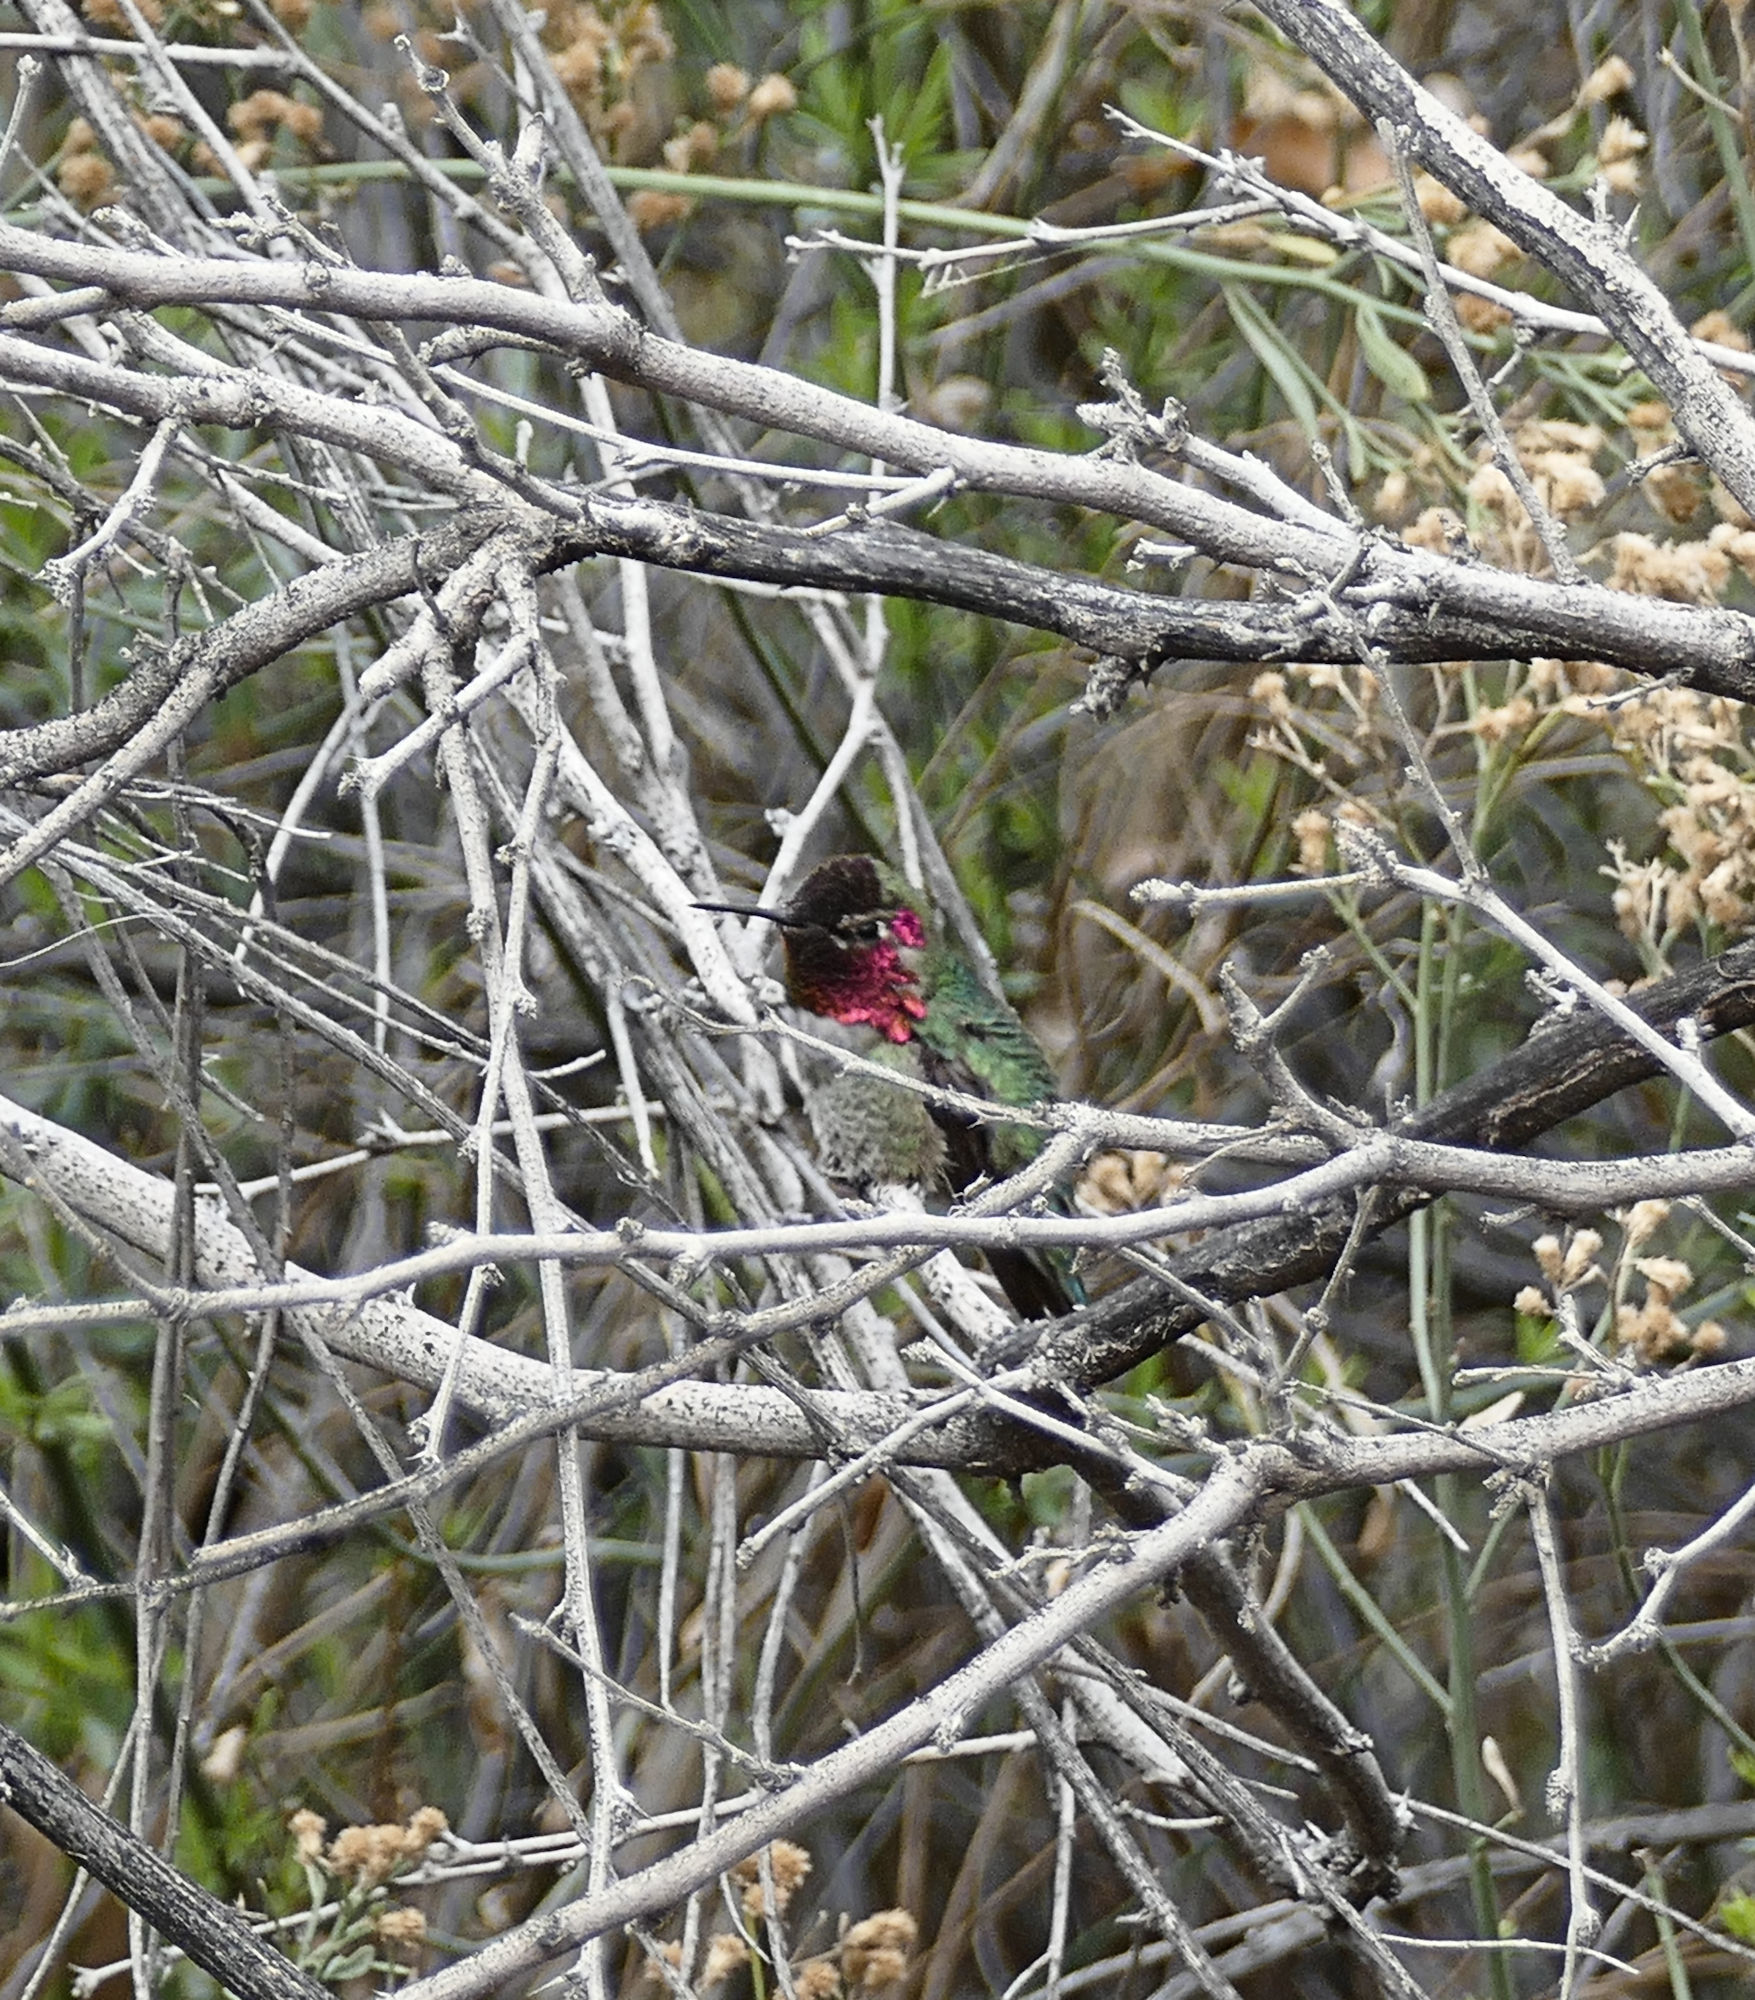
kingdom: Animalia
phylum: Chordata
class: Aves
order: Apodiformes
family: Trochilidae
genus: Calypte
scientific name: Calypte anna
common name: Anna's hummingbird
